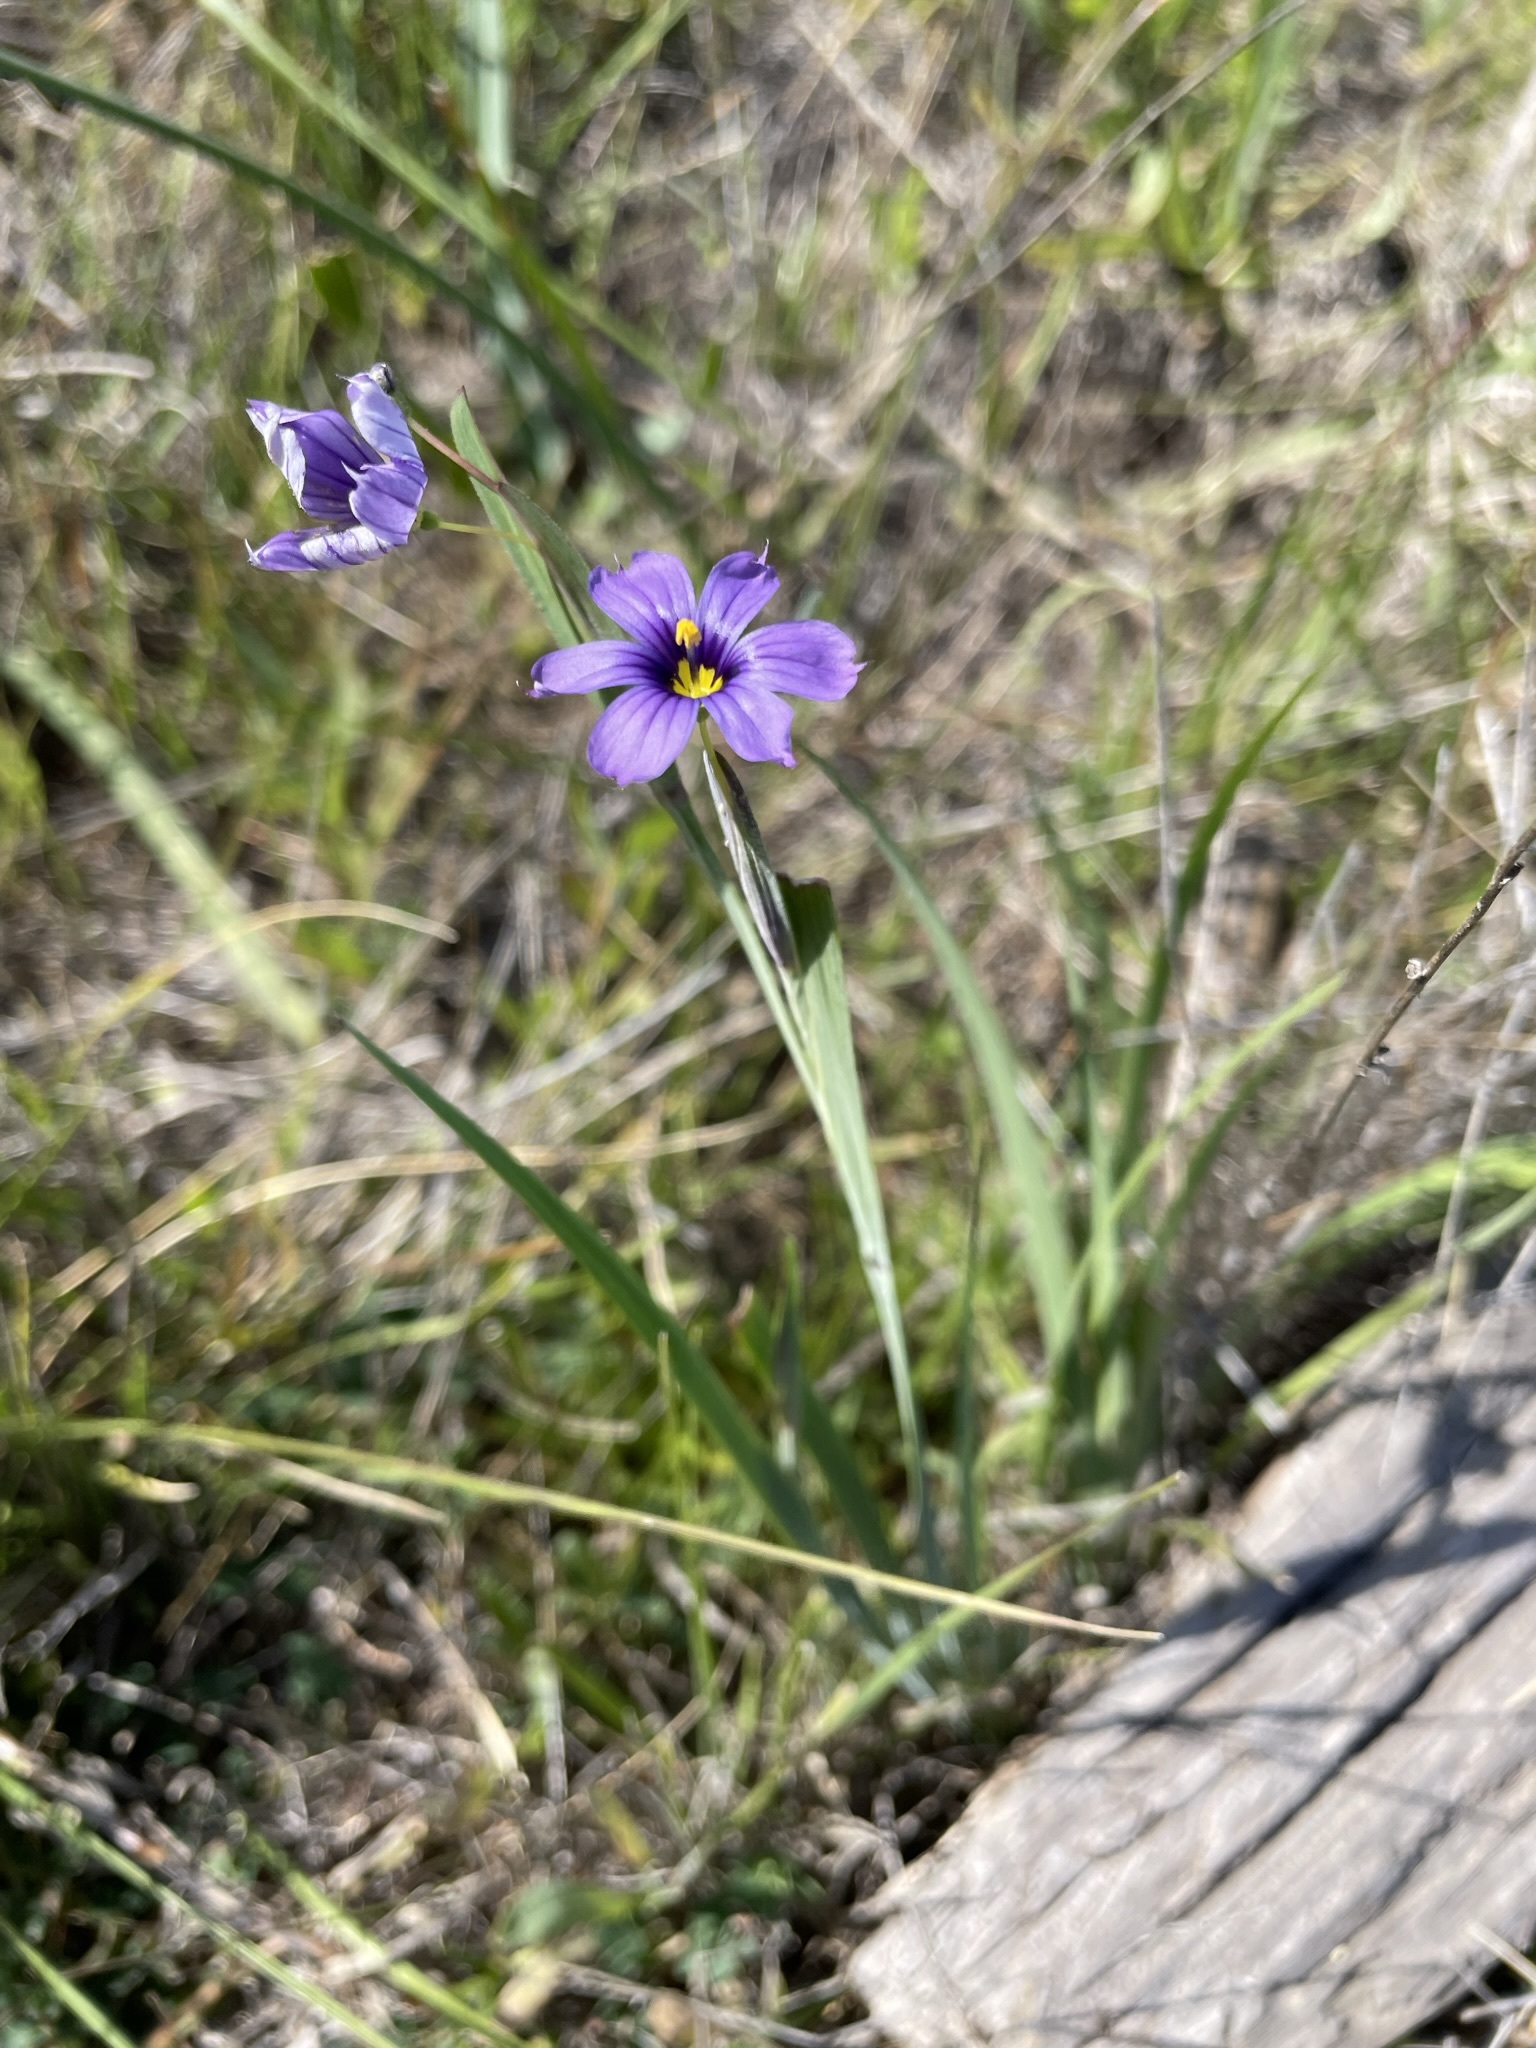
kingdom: Plantae
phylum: Tracheophyta
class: Liliopsida
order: Asparagales
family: Iridaceae
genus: Sisyrinchium
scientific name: Sisyrinchium bellum
